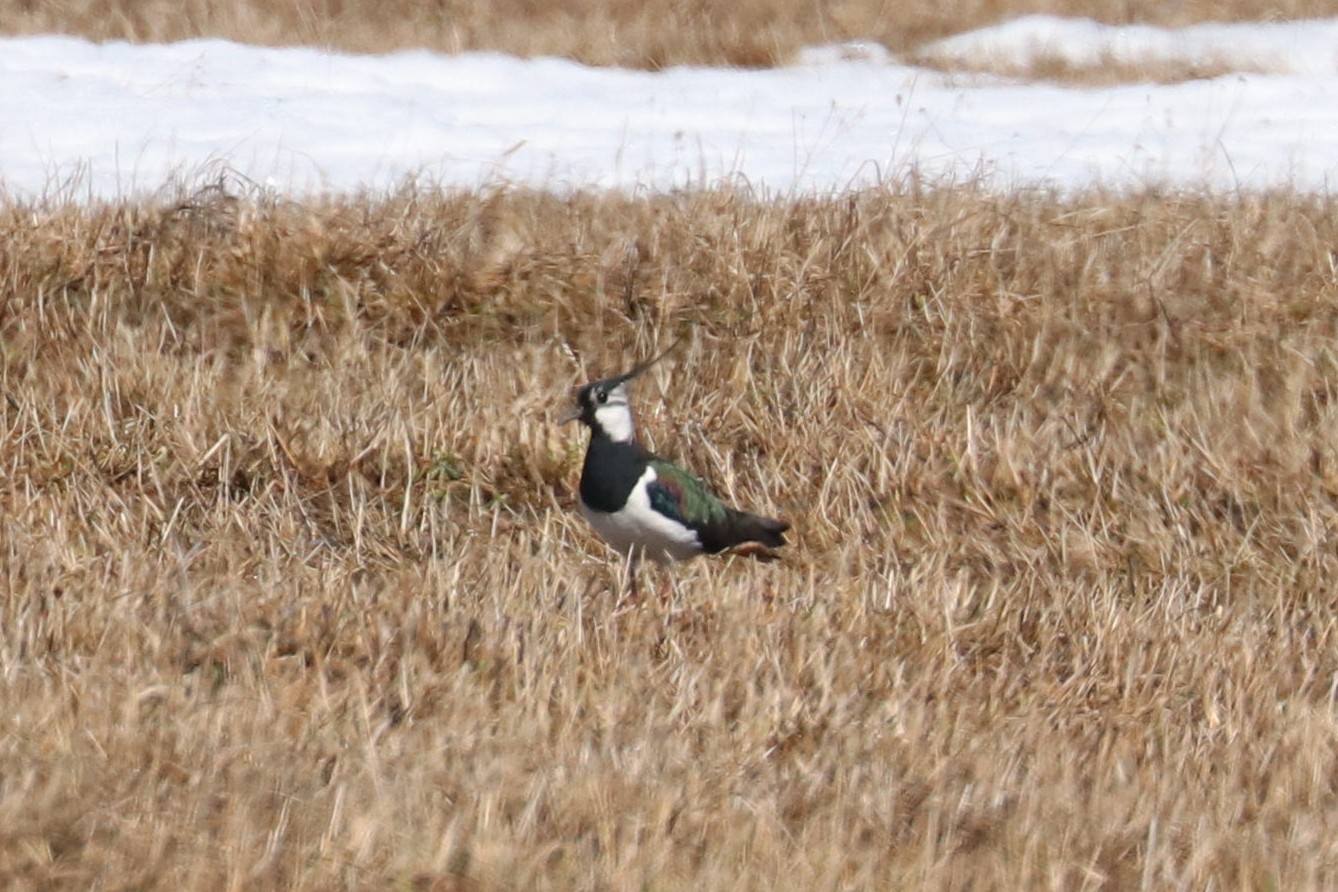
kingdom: Animalia
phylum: Chordata
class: Aves
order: Charadriiformes
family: Charadriidae
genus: Vanellus
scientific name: Vanellus vanellus
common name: Northern lapwing
